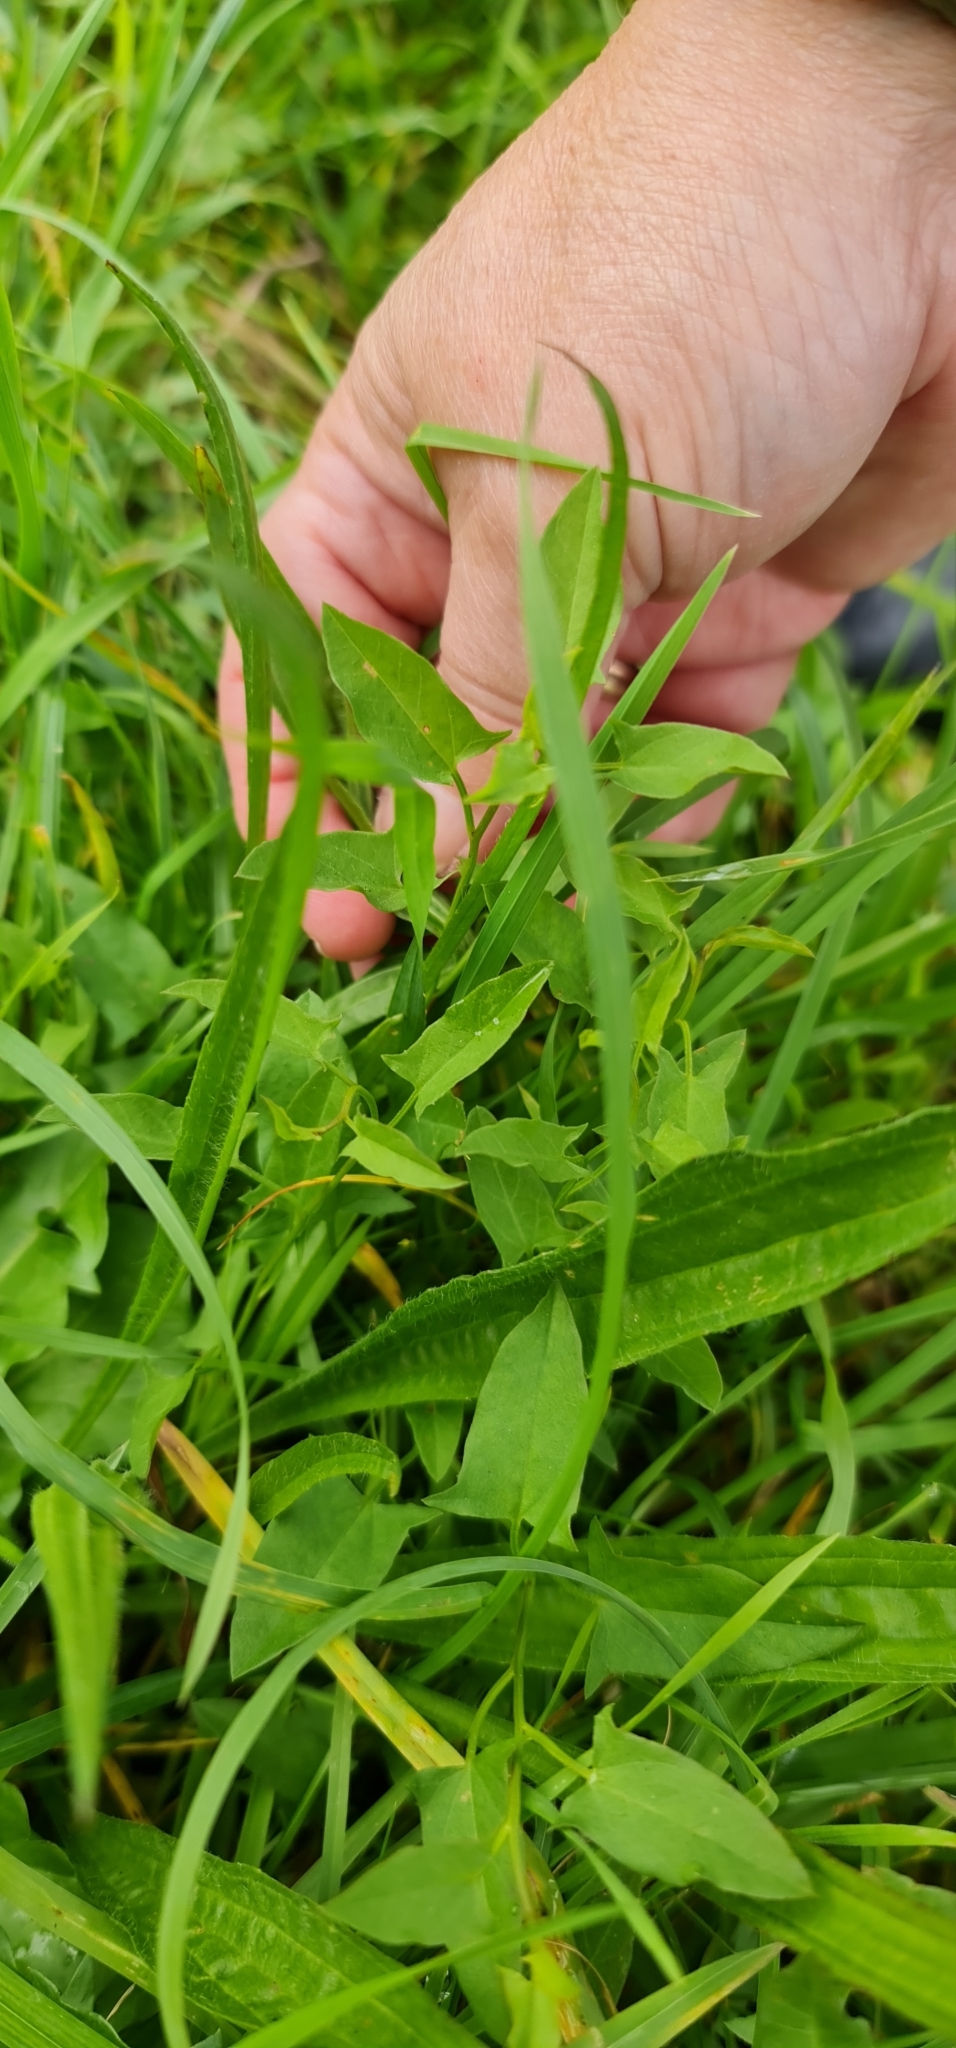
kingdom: Plantae
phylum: Tracheophyta
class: Magnoliopsida
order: Solanales
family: Convolvulaceae
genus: Convolvulus
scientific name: Convolvulus arvensis
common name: Field bindweed
